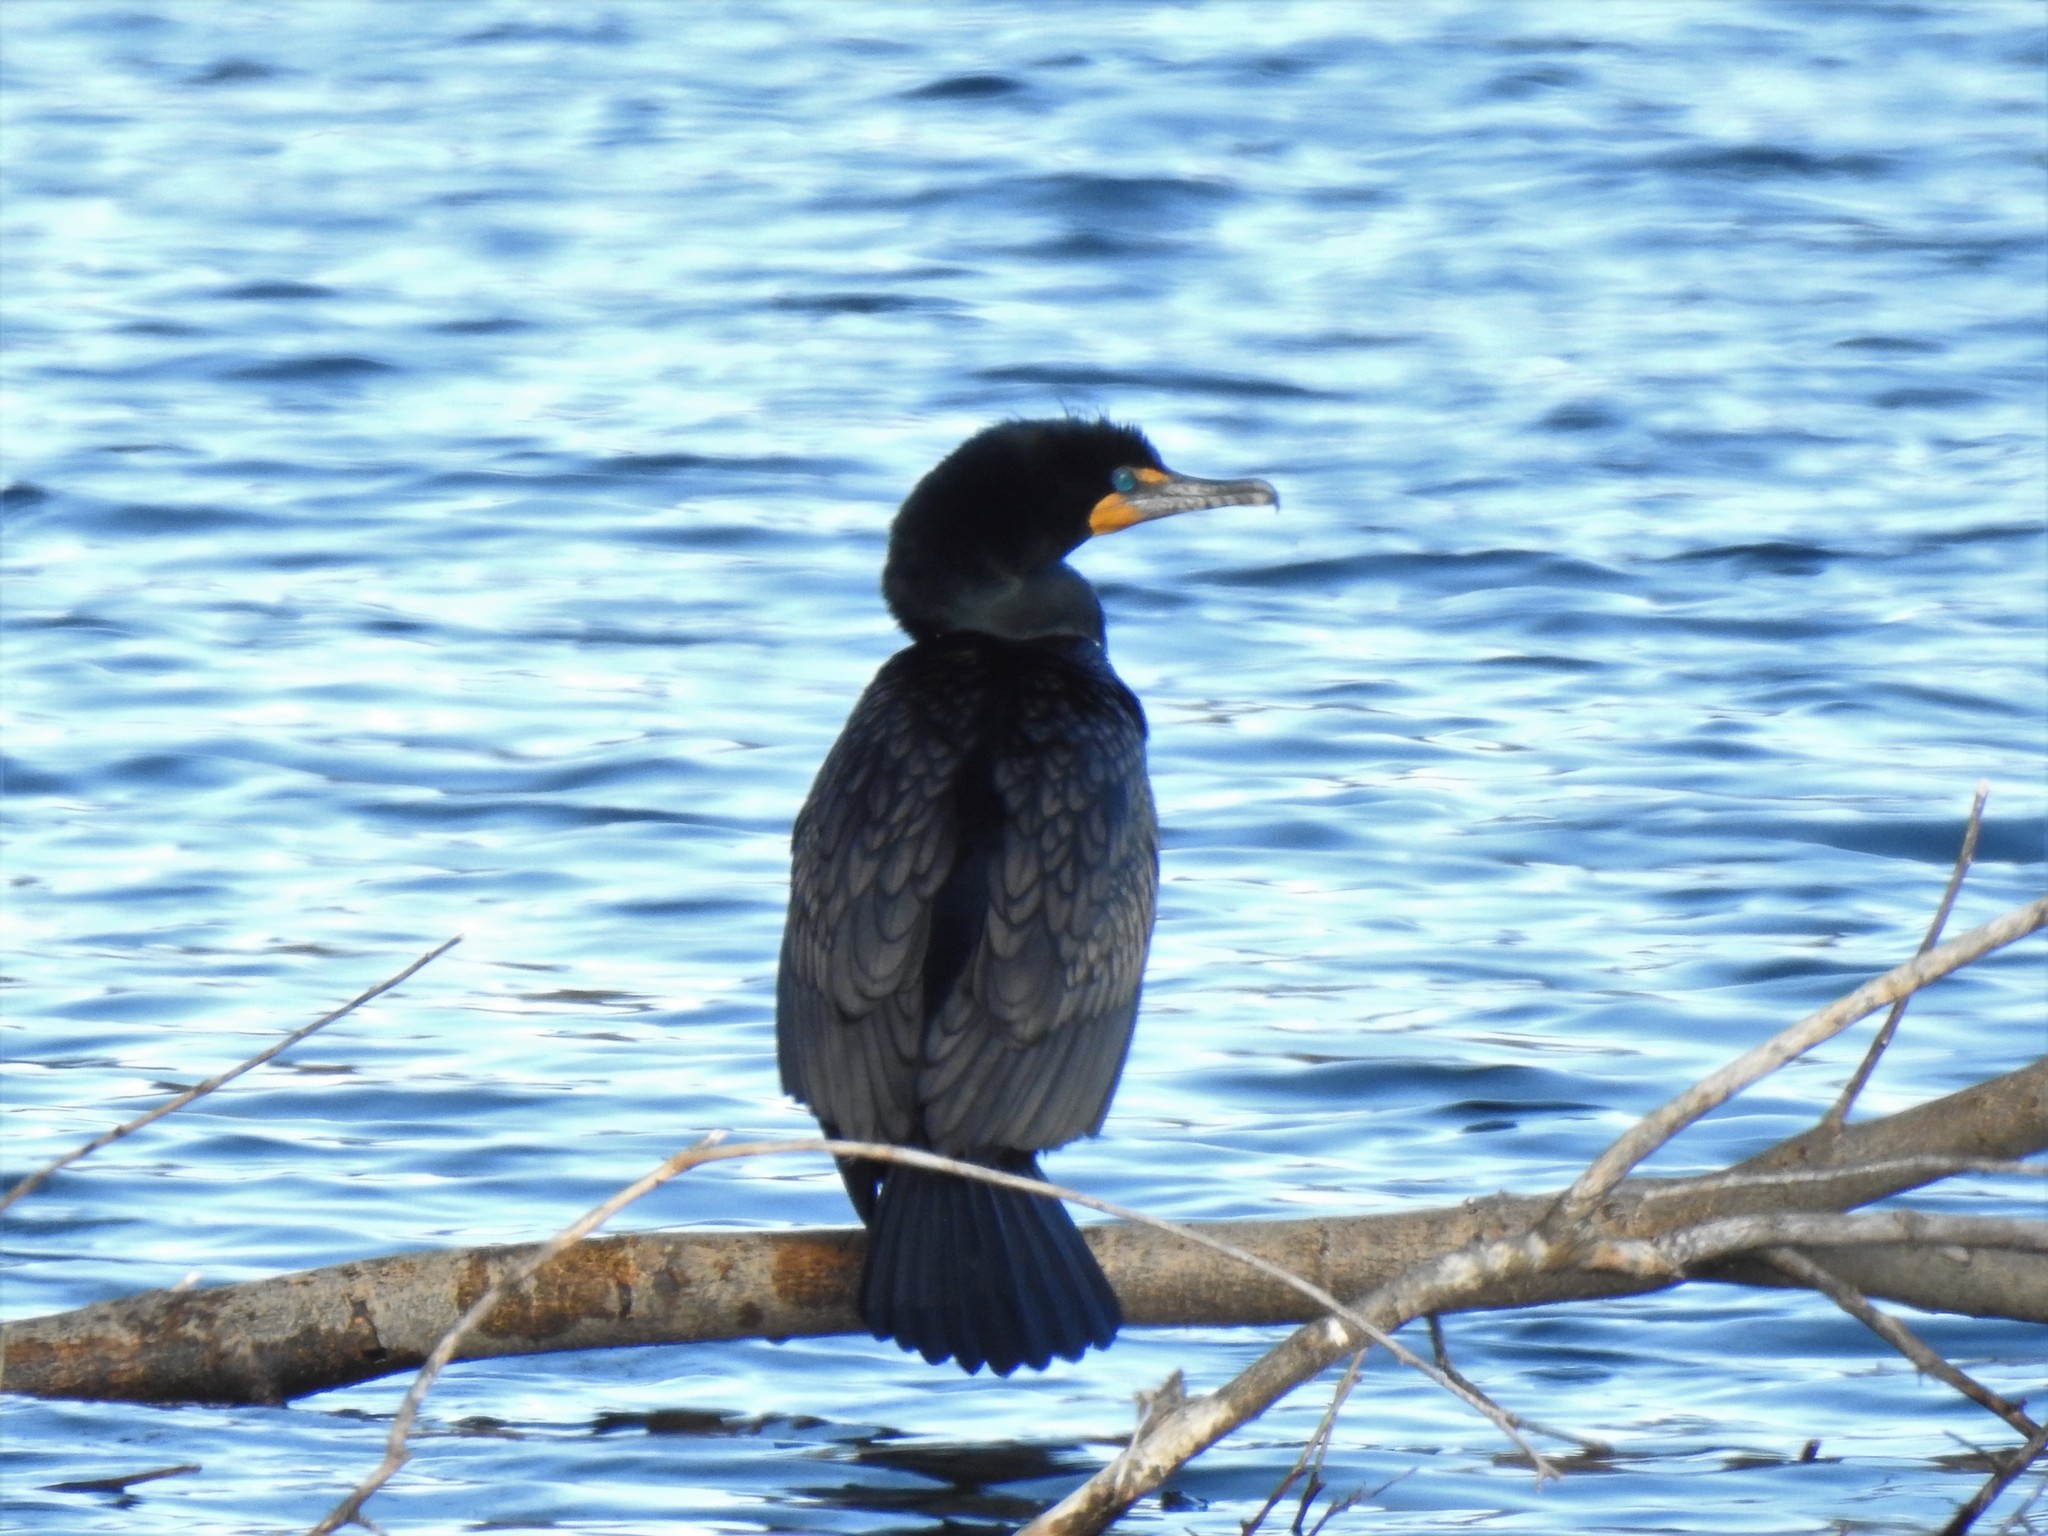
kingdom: Animalia
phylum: Chordata
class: Aves
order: Suliformes
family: Phalacrocoracidae
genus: Phalacrocorax
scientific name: Phalacrocorax auritus
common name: Double-crested cormorant
